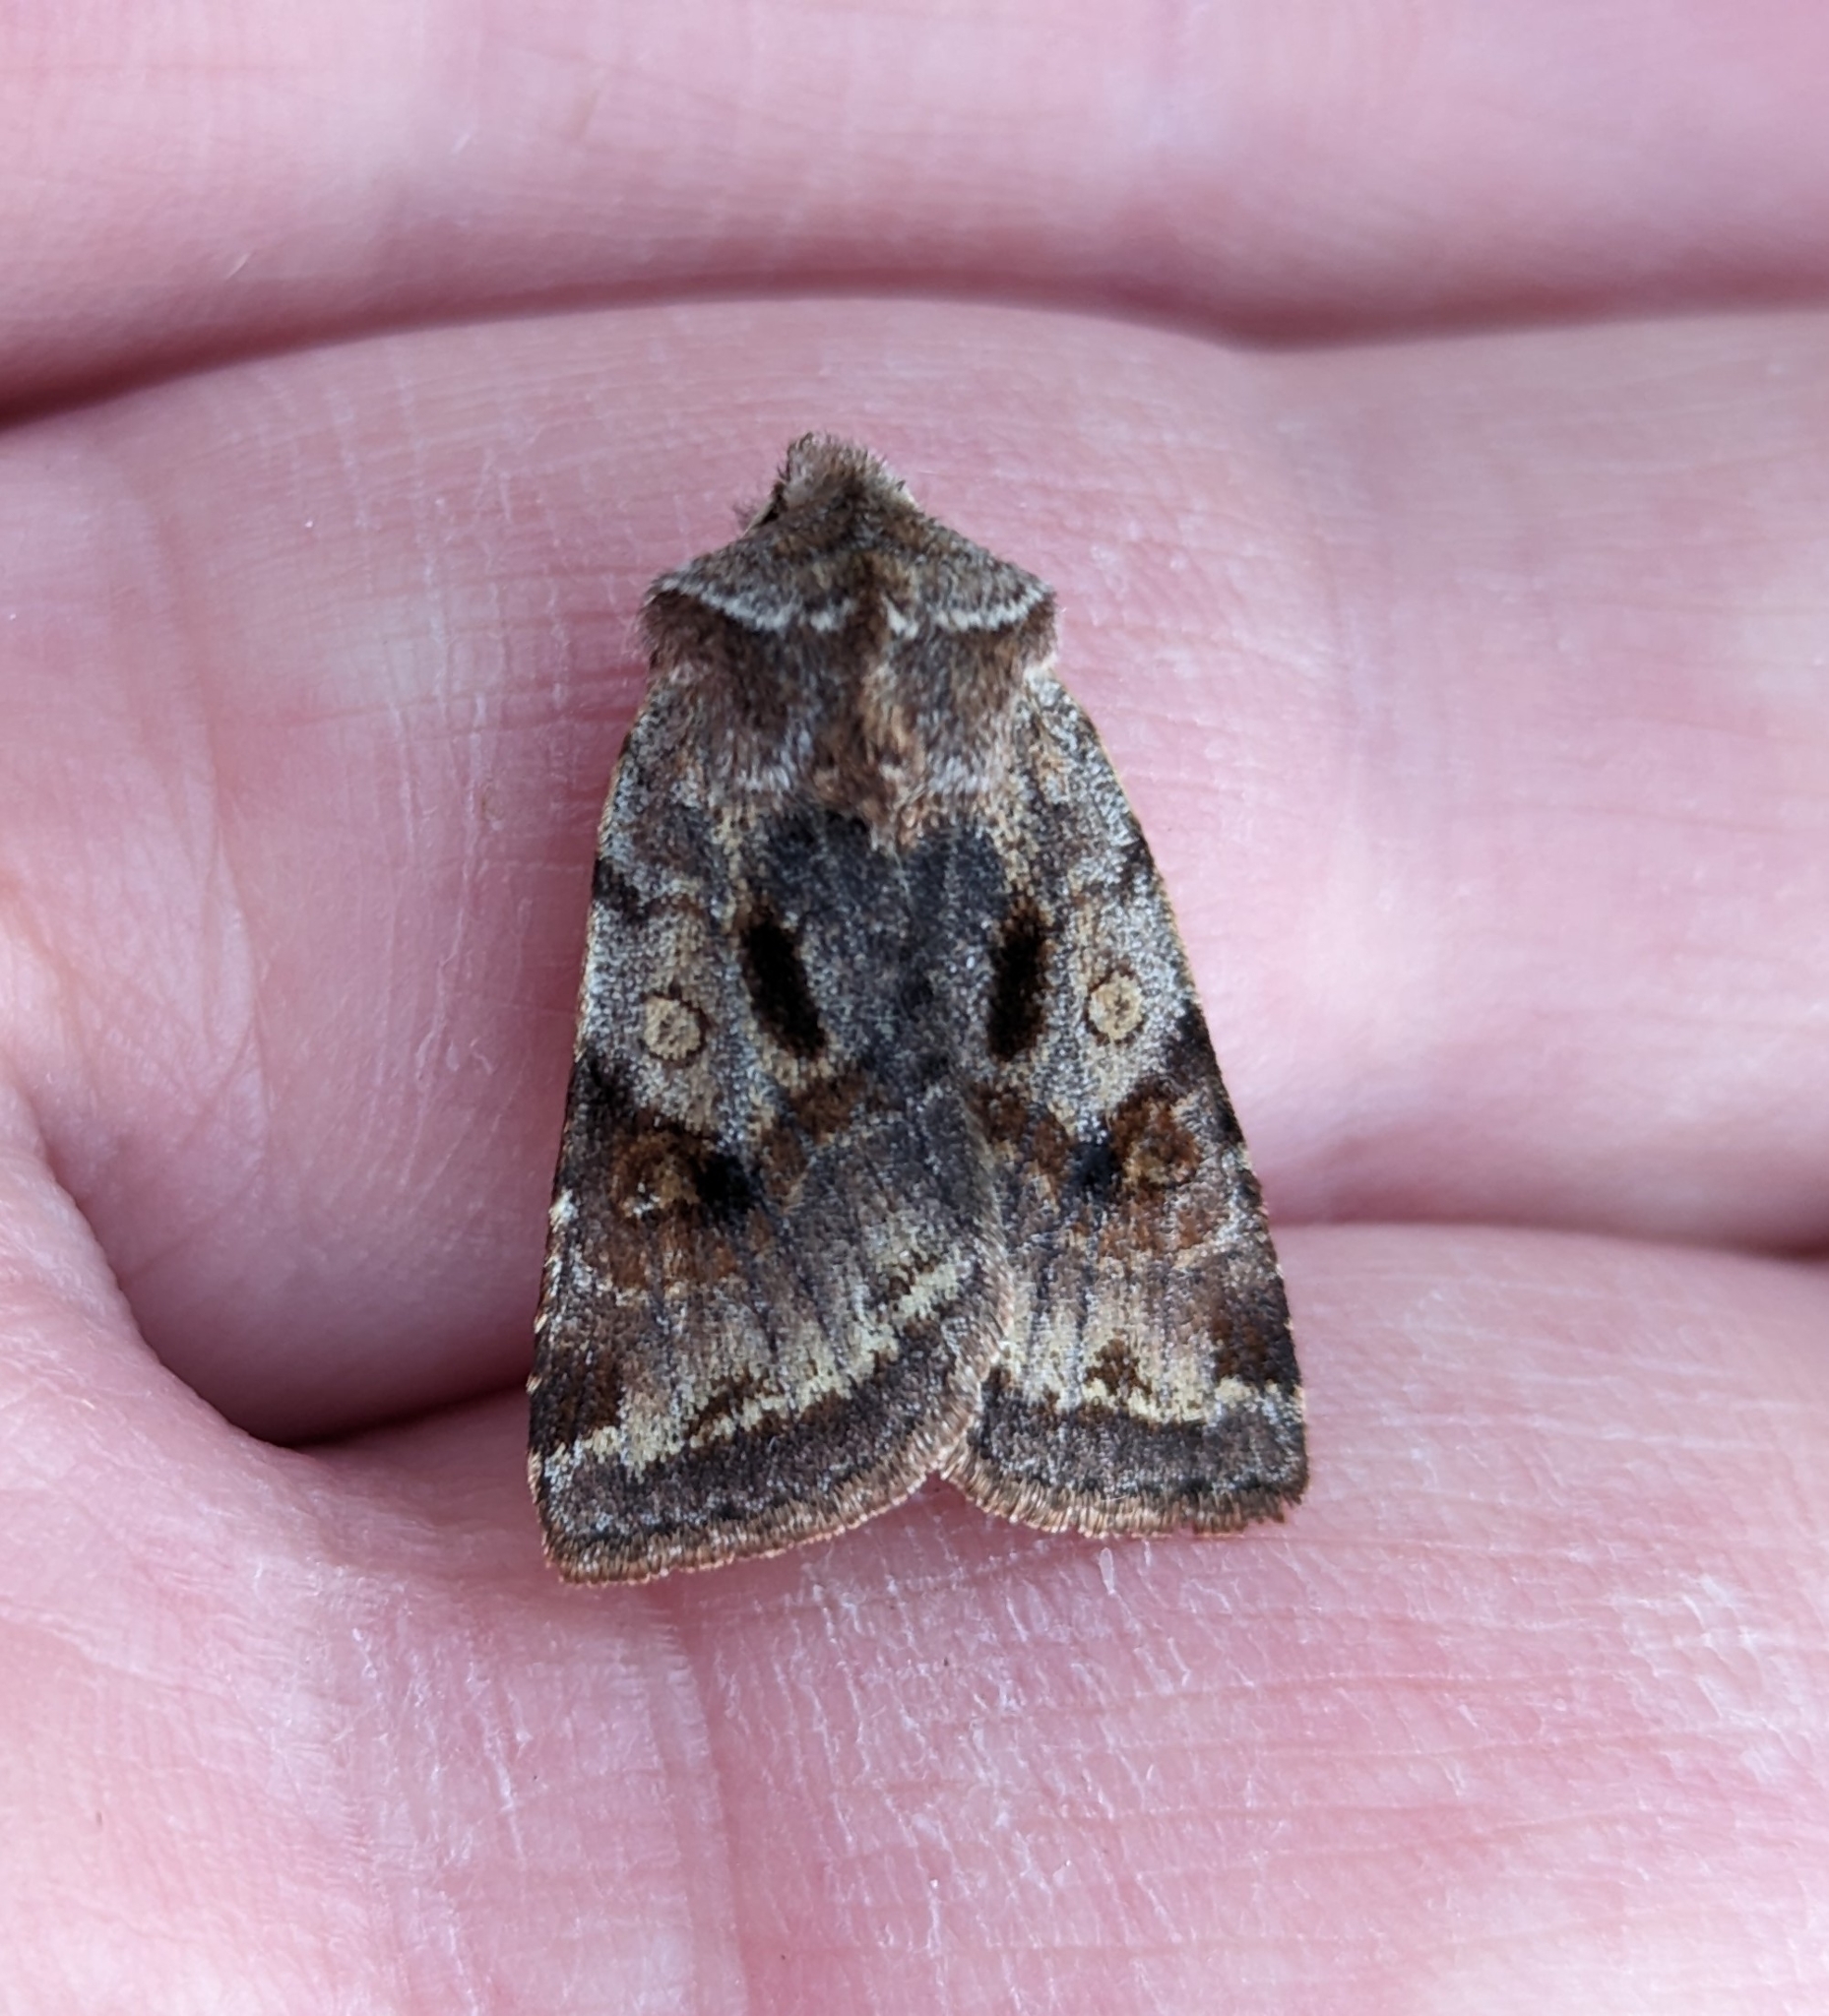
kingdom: Animalia
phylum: Arthropoda
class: Insecta
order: Lepidoptera
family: Noctuidae
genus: Cerastis
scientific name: Cerastis salicarum
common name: Willow dart
